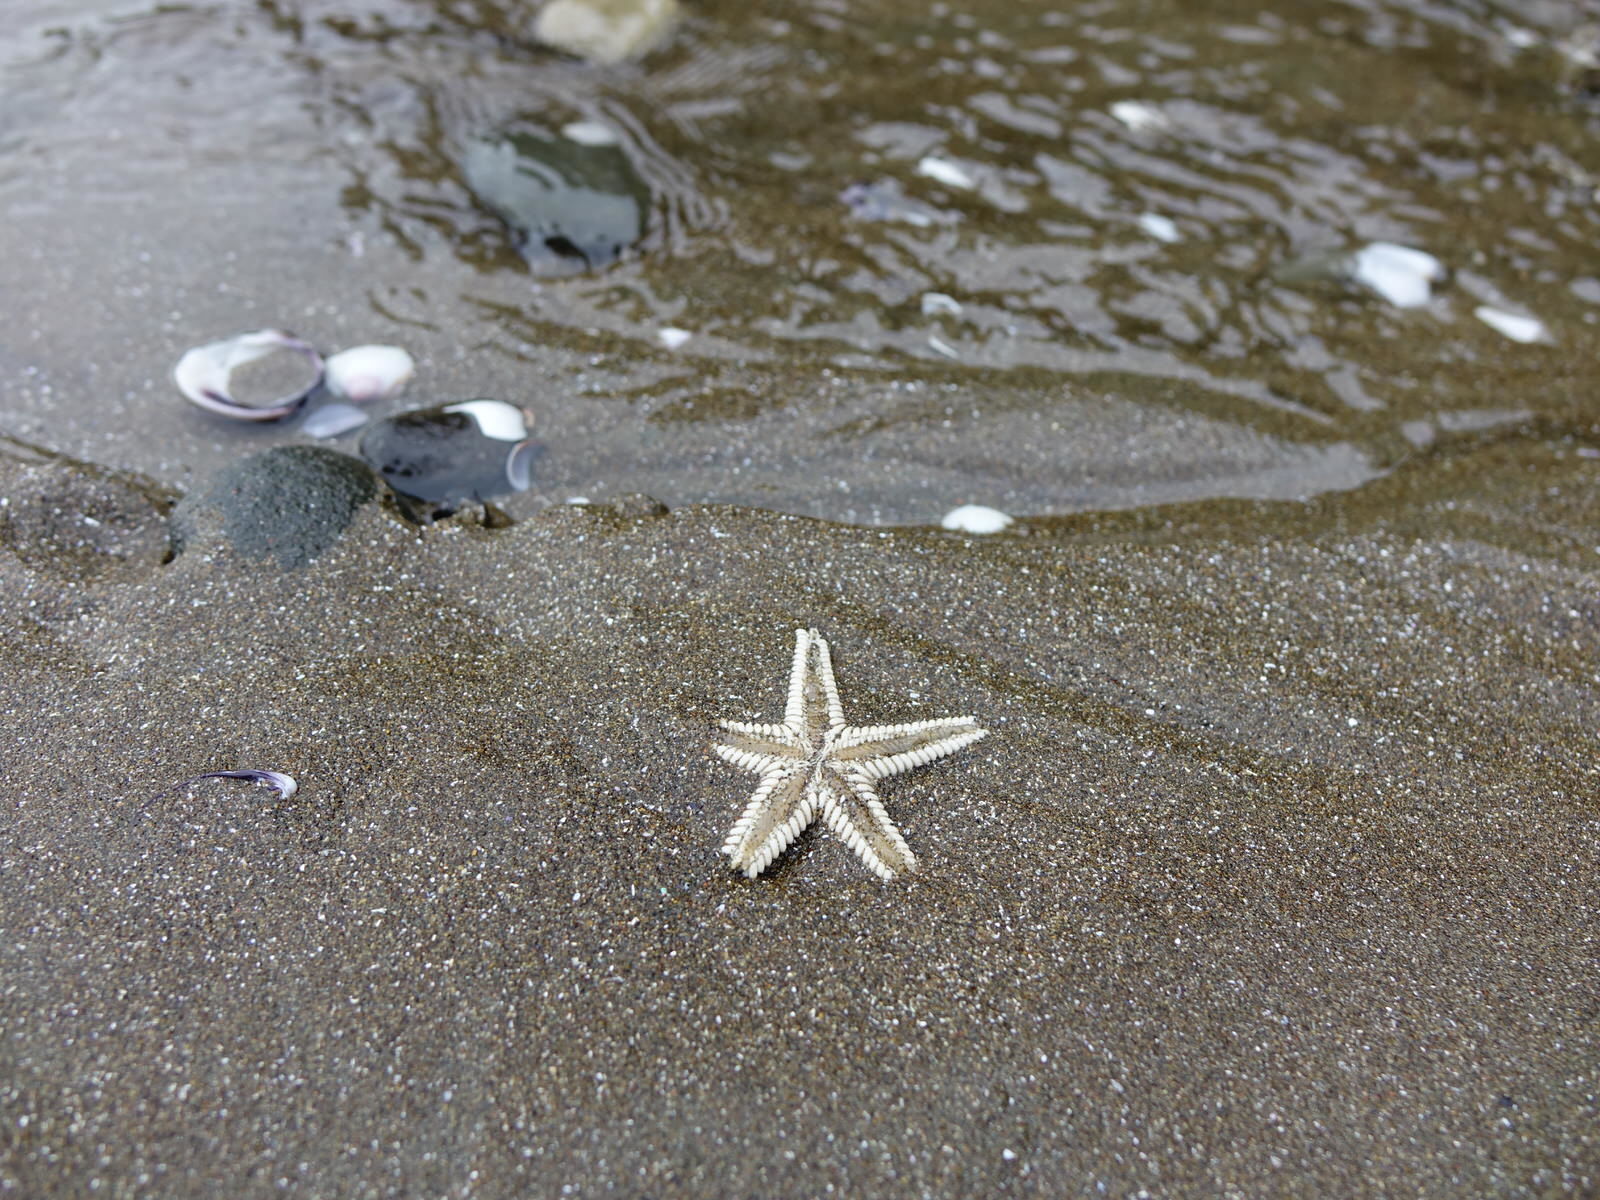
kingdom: Animalia
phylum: Echinodermata
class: Asteroidea
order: Paxillosida
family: Astropectinidae
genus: Astropecten
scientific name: Astropecten polyacanthus
